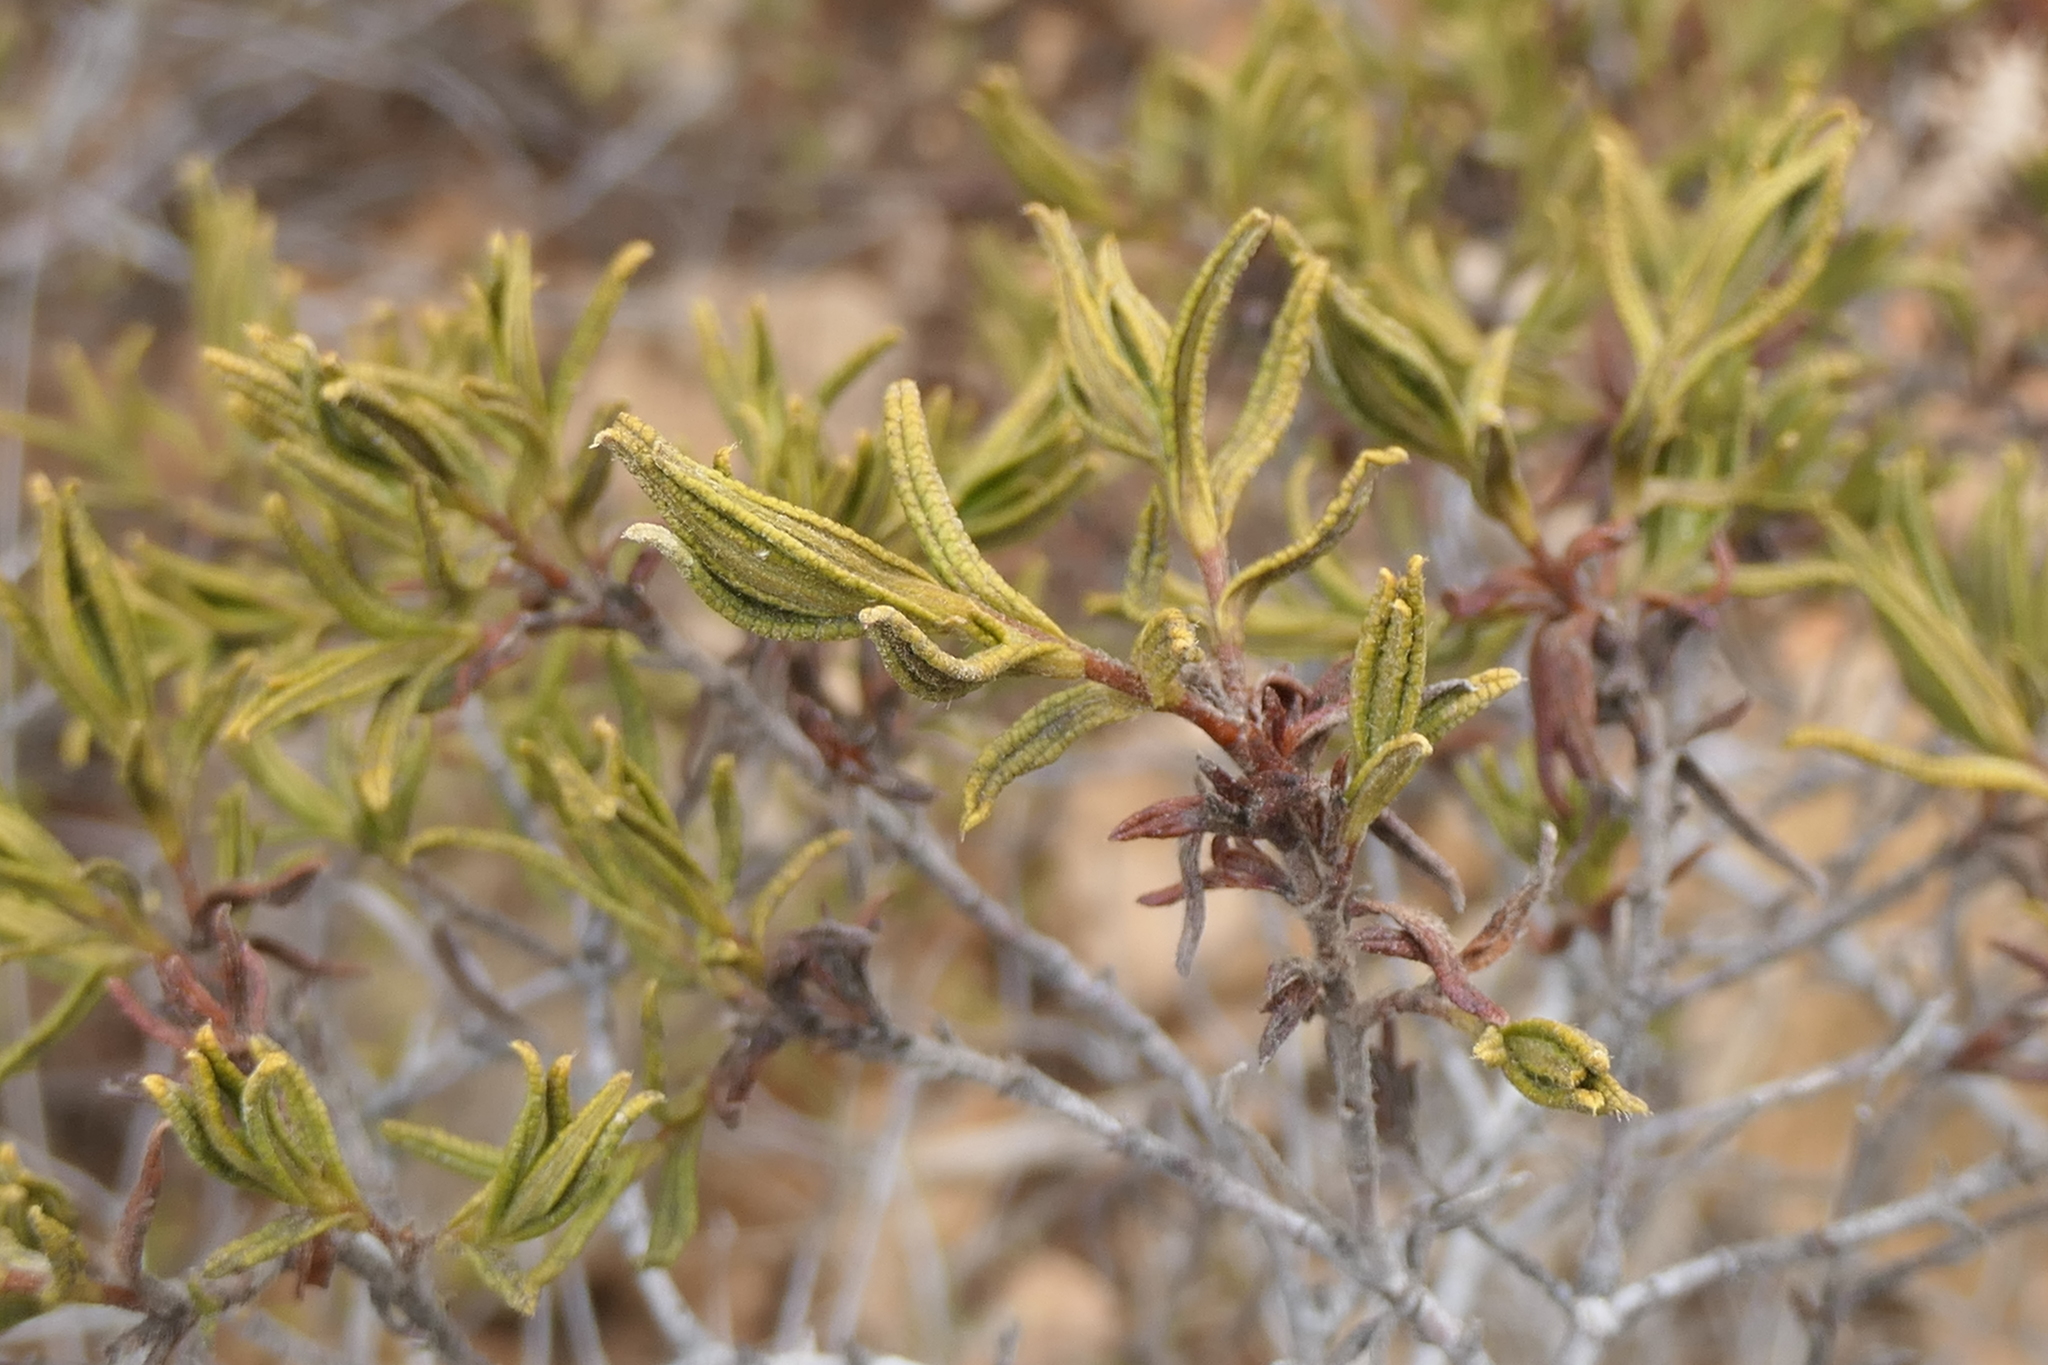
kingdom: Plantae
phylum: Tracheophyta
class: Magnoliopsida
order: Malvales
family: Cistaceae
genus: Cistus
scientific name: Cistus monspeliensis
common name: Montpelier cistus
